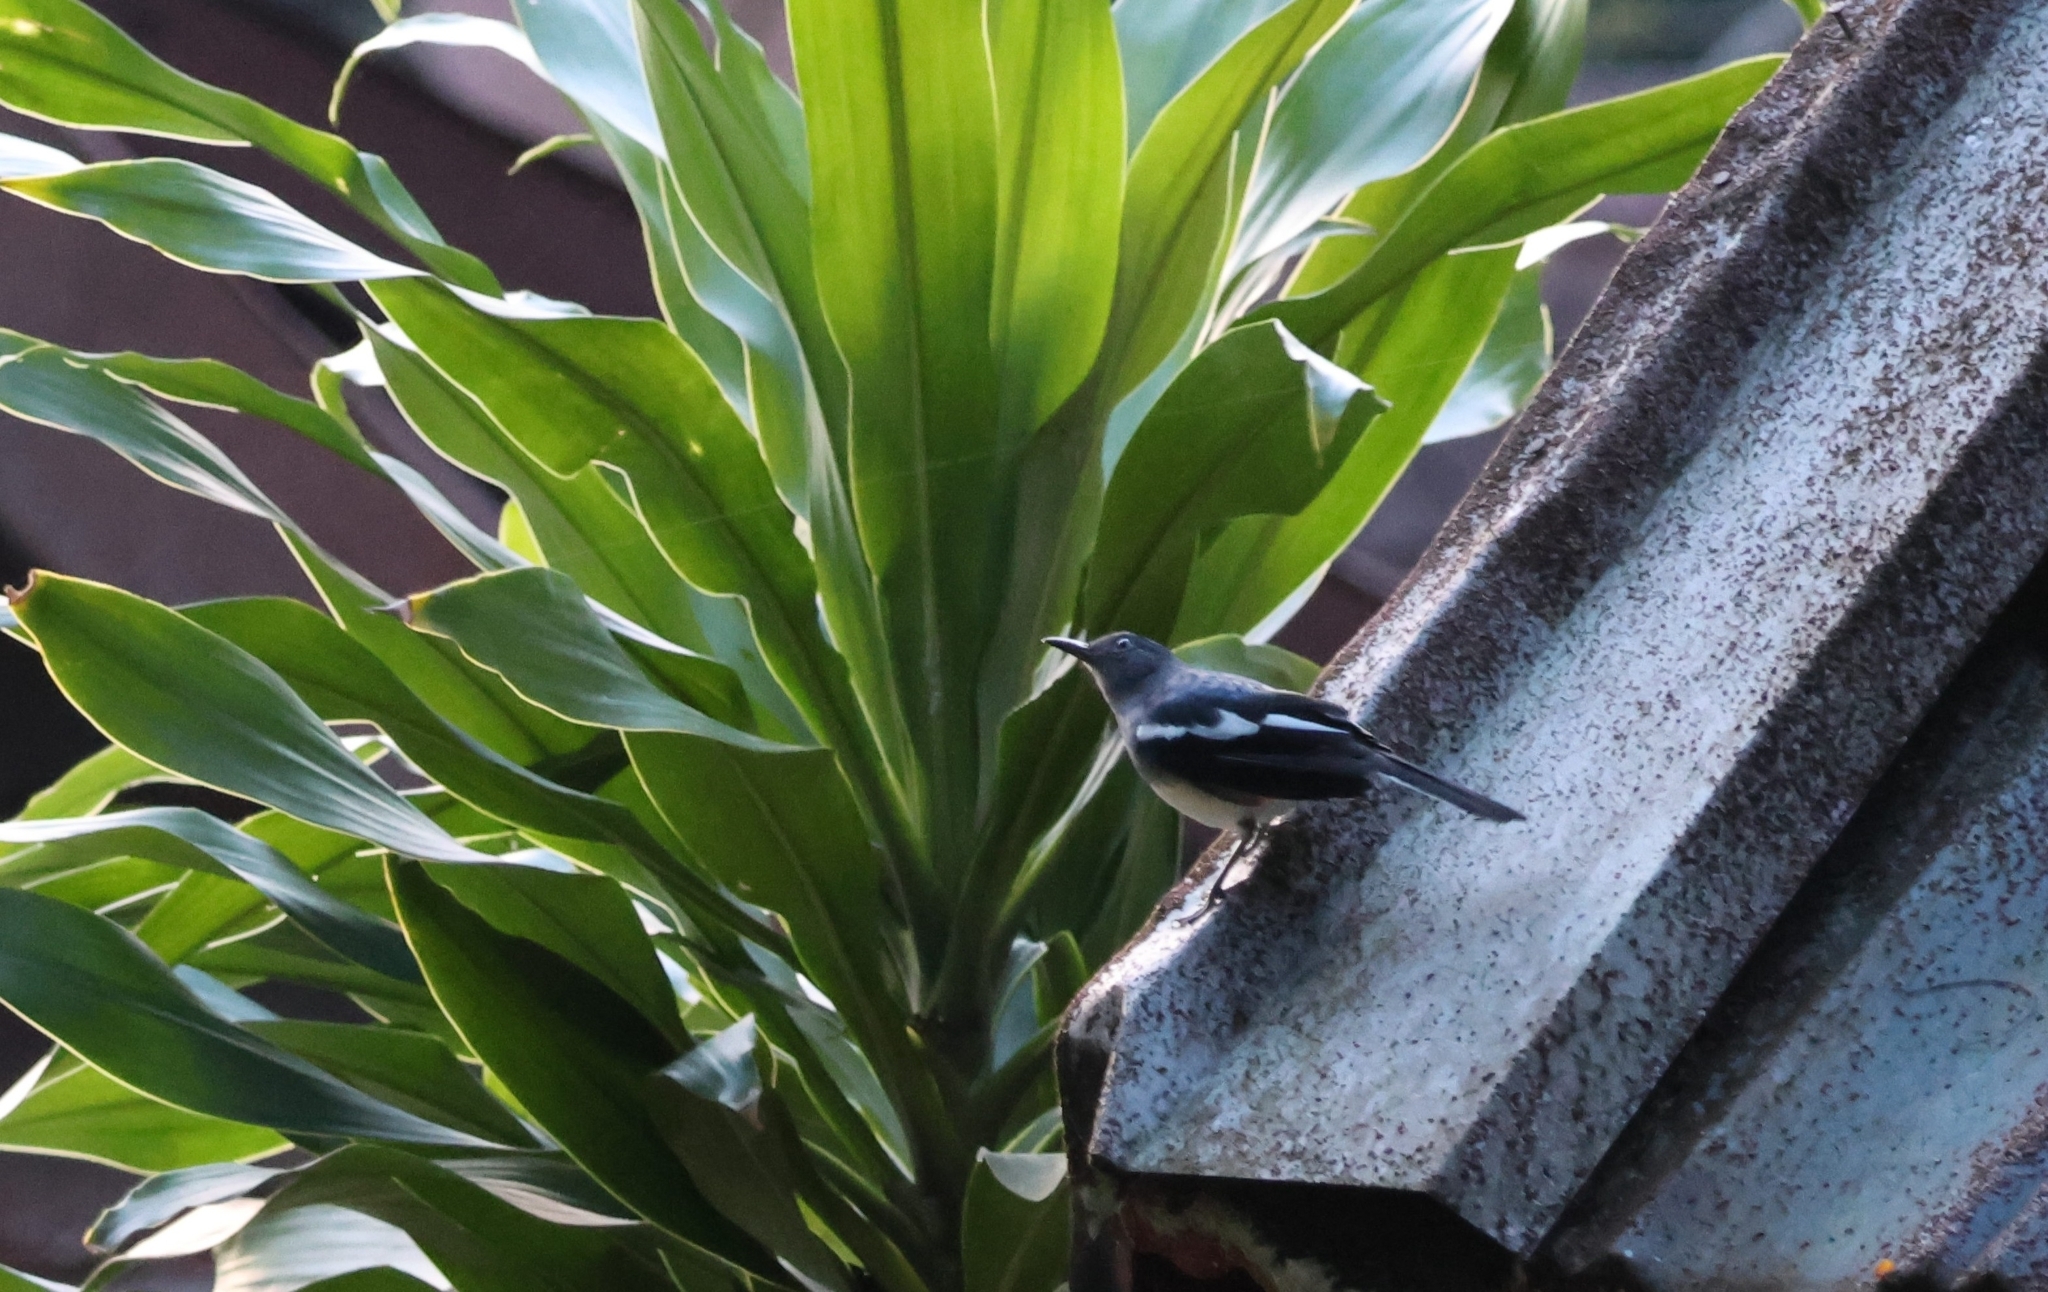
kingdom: Animalia
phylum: Chordata
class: Aves
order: Passeriformes
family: Muscicapidae
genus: Copsychus
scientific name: Copsychus saularis
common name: Oriental magpie-robin
